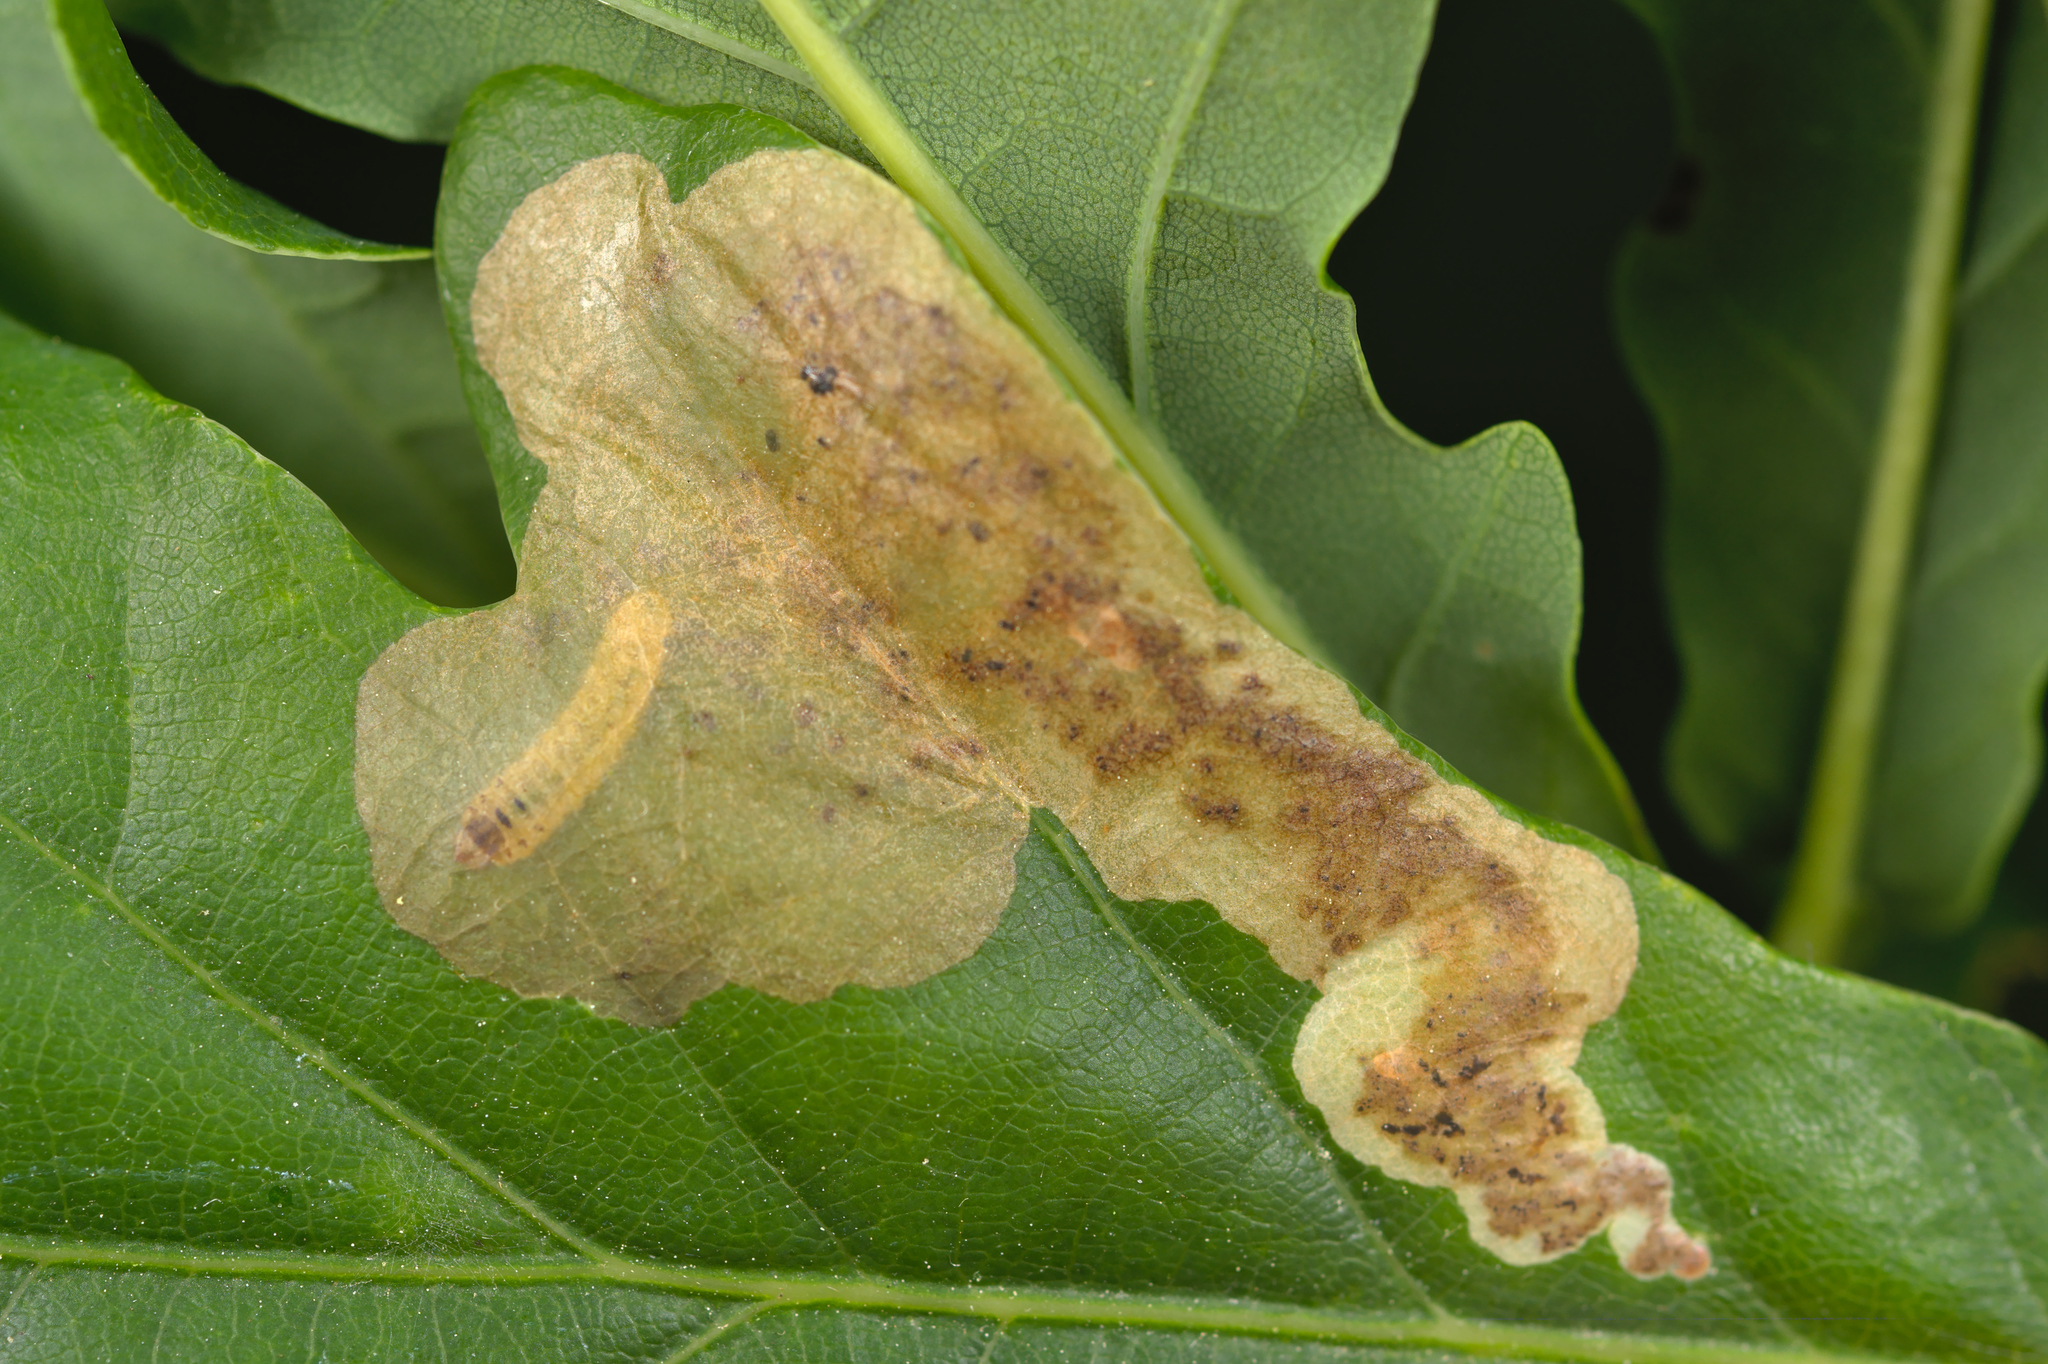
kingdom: Animalia
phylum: Arthropoda
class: Insecta
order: Hymenoptera
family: Tenthredinidae
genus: Profenusa
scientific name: Profenusa pygmaea
